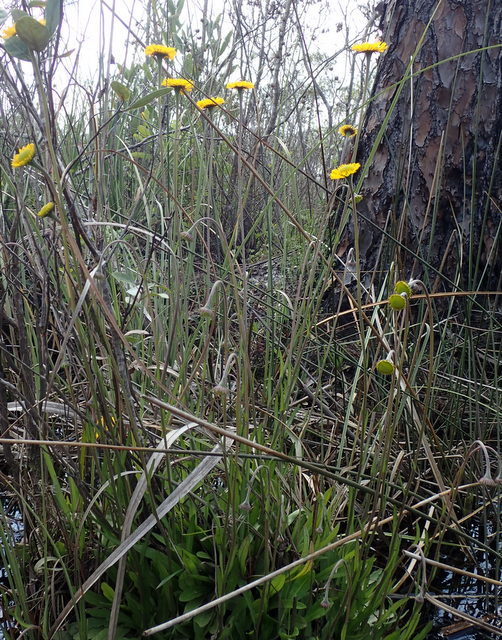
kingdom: Plantae
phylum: Tracheophyta
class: Magnoliopsida
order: Asterales
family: Asteraceae
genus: Helenium
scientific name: Helenium pinnatifidum
